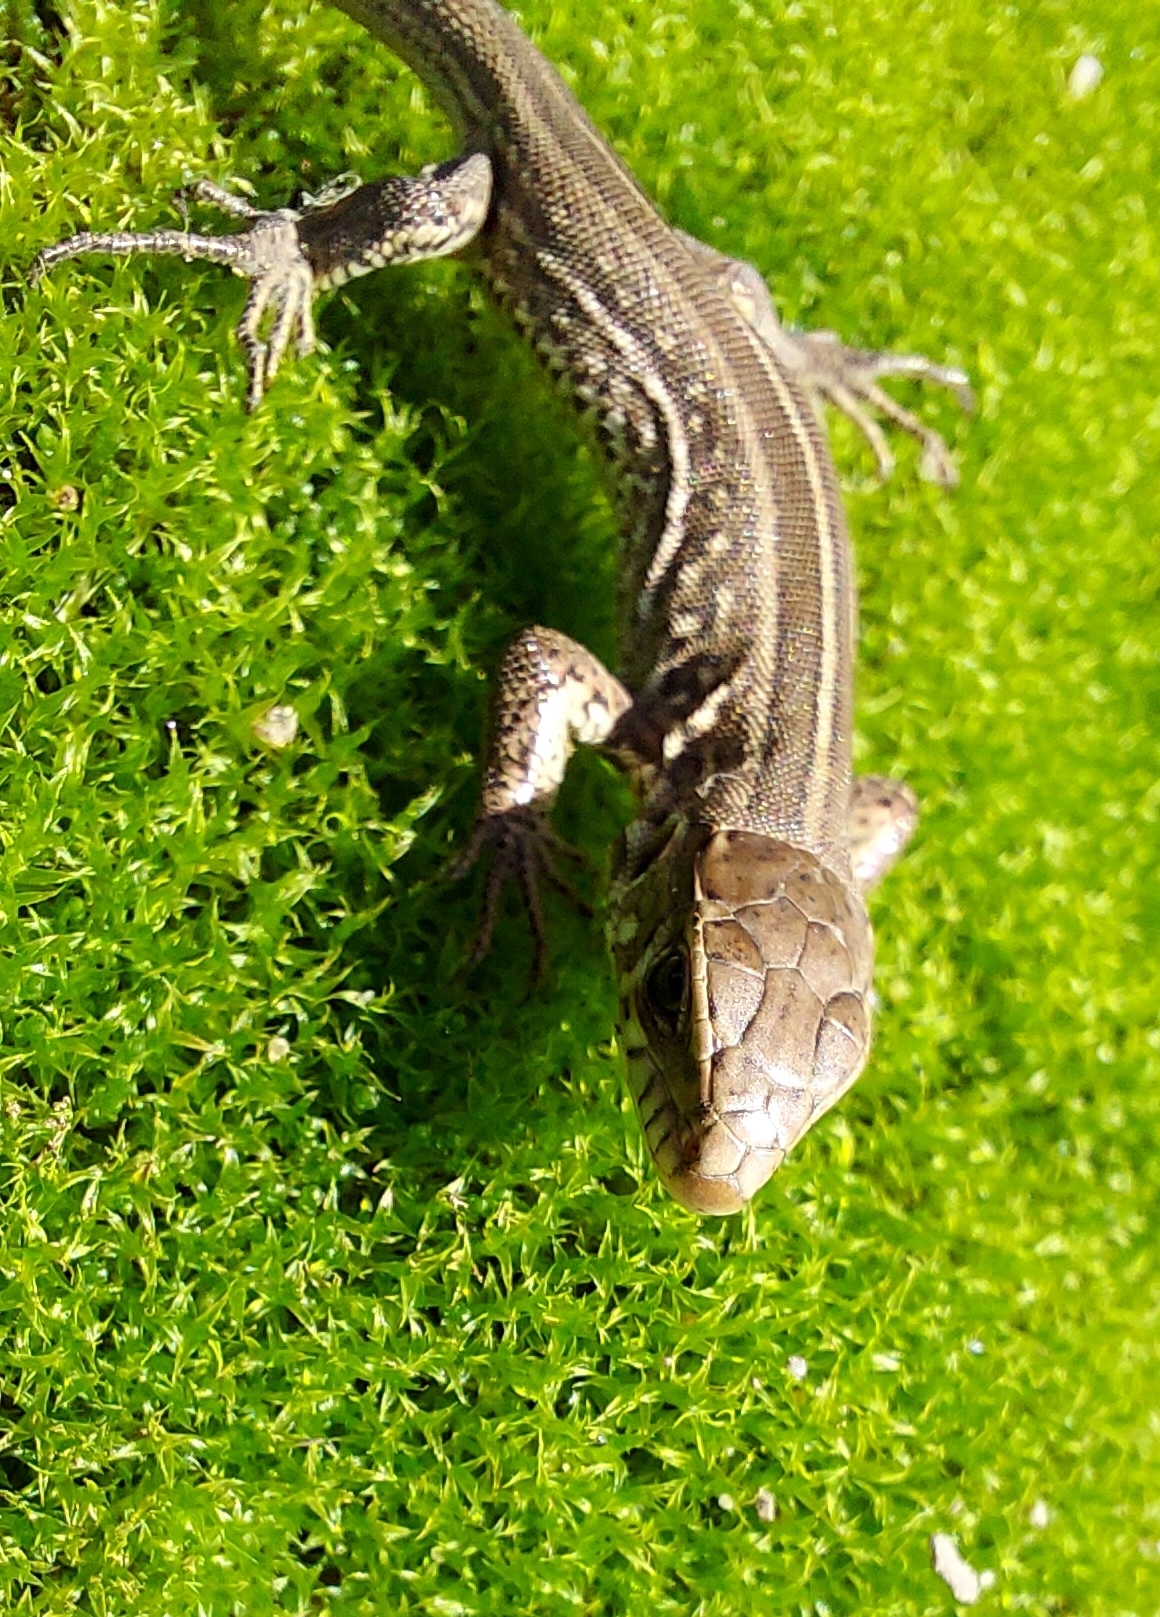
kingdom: Animalia
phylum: Chordata
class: Squamata
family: Lacertidae
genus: Lacerta
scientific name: Lacerta agilis
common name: Sand lizard
